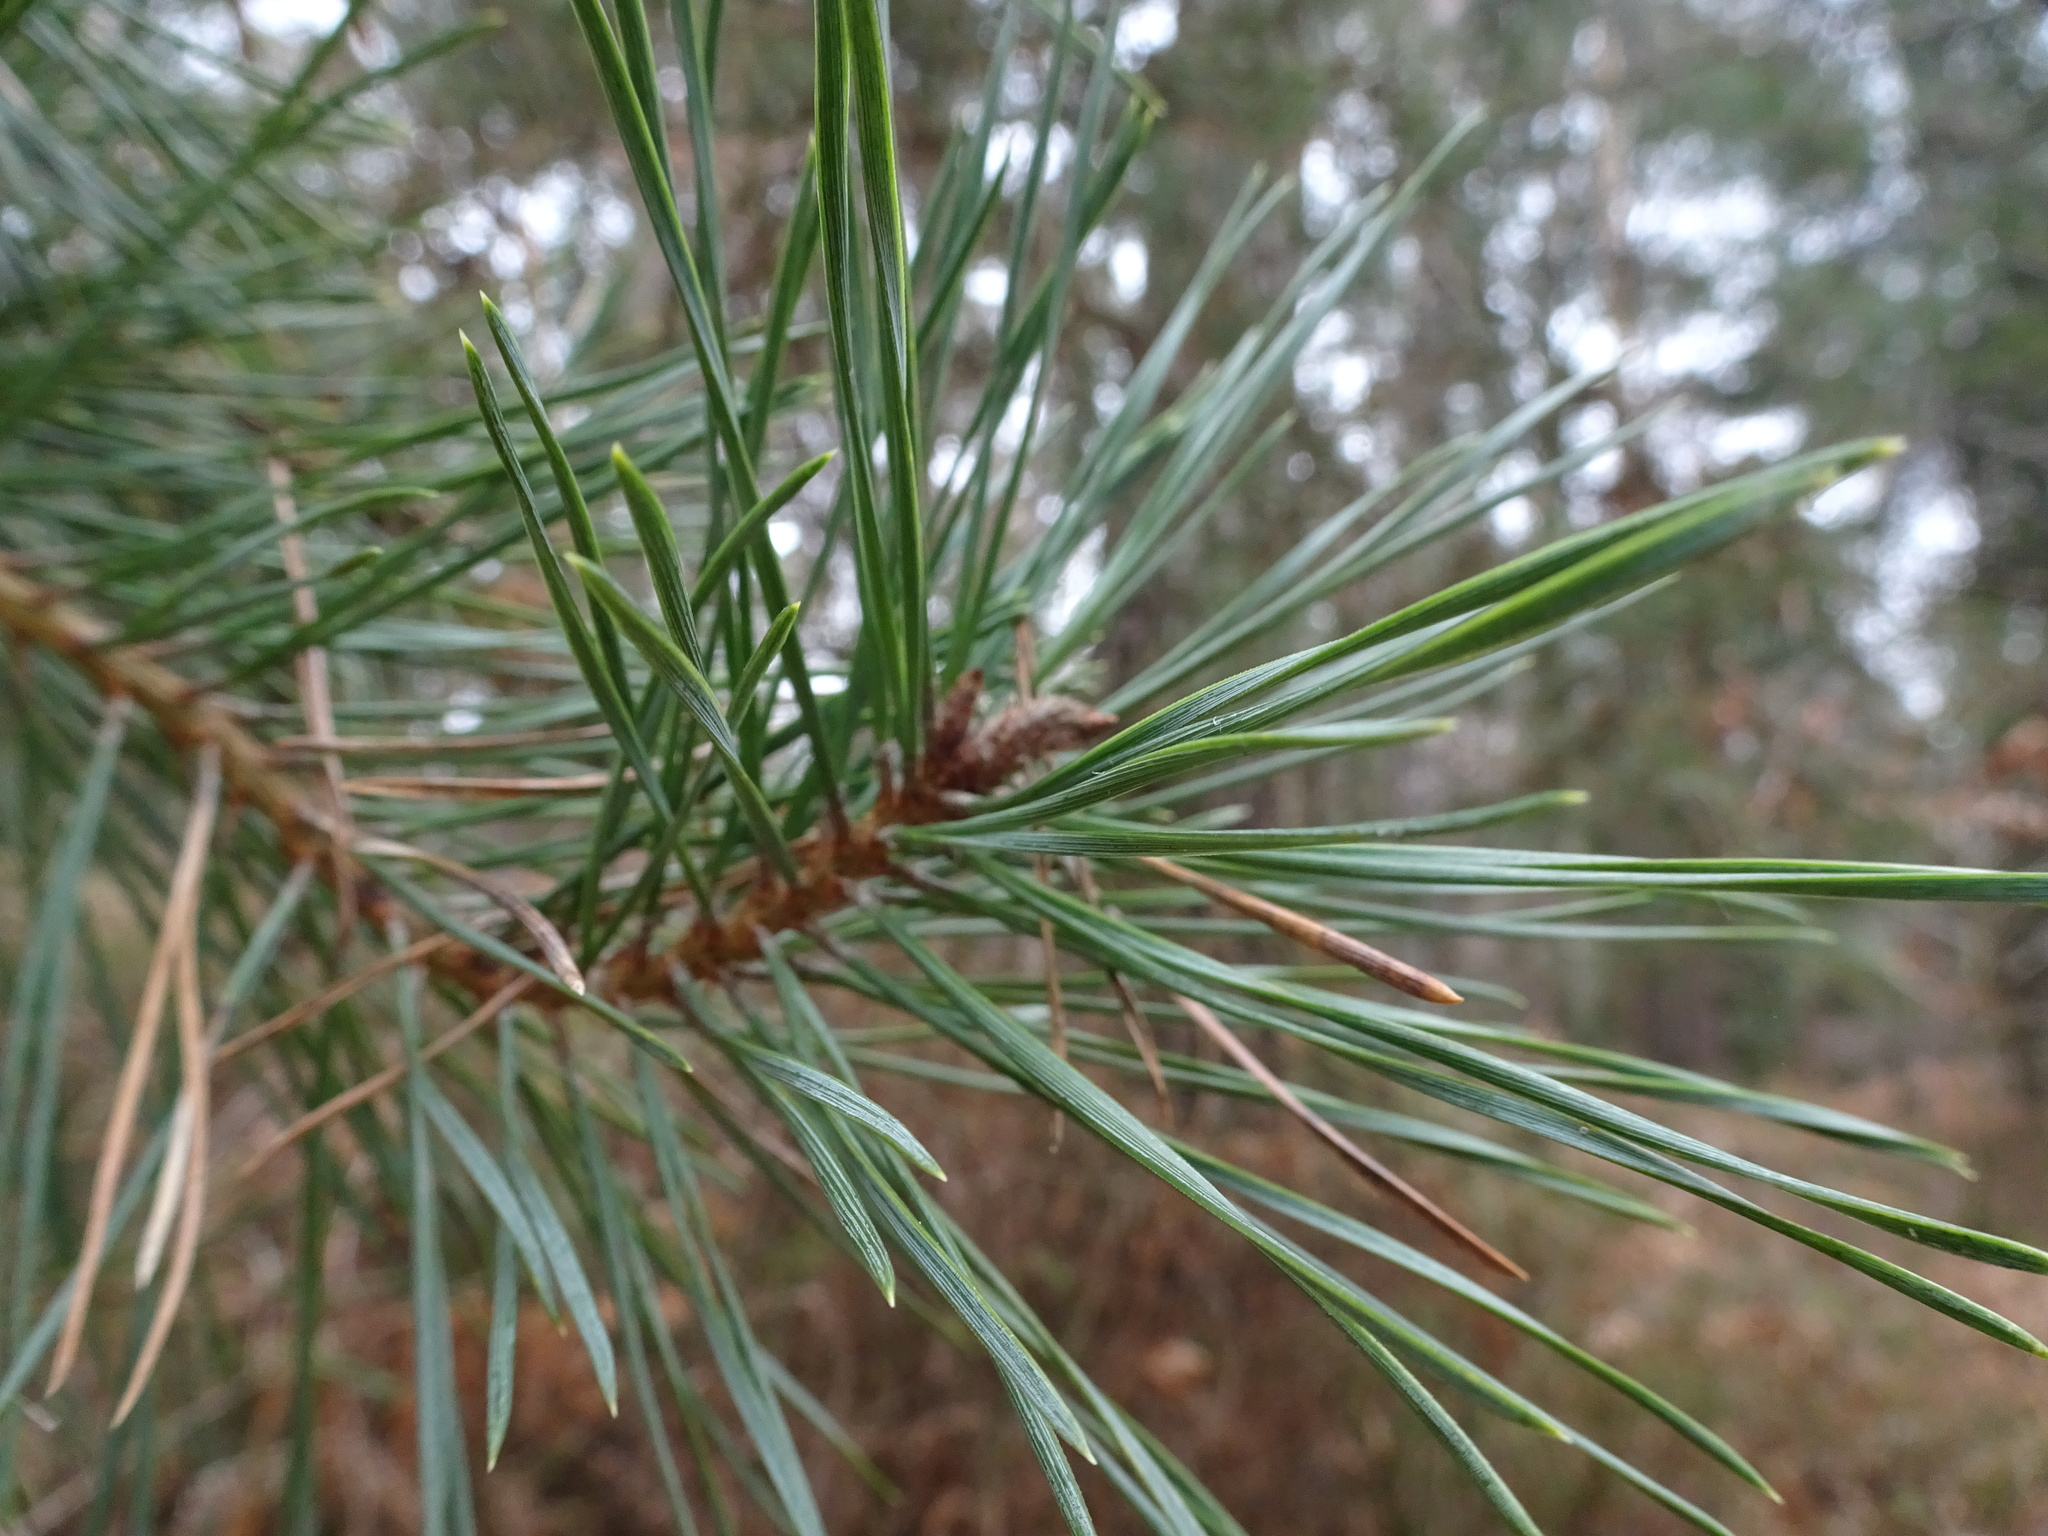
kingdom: Plantae
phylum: Tracheophyta
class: Pinopsida
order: Pinales
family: Pinaceae
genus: Pinus
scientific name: Pinus sylvestris
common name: Scots pine
